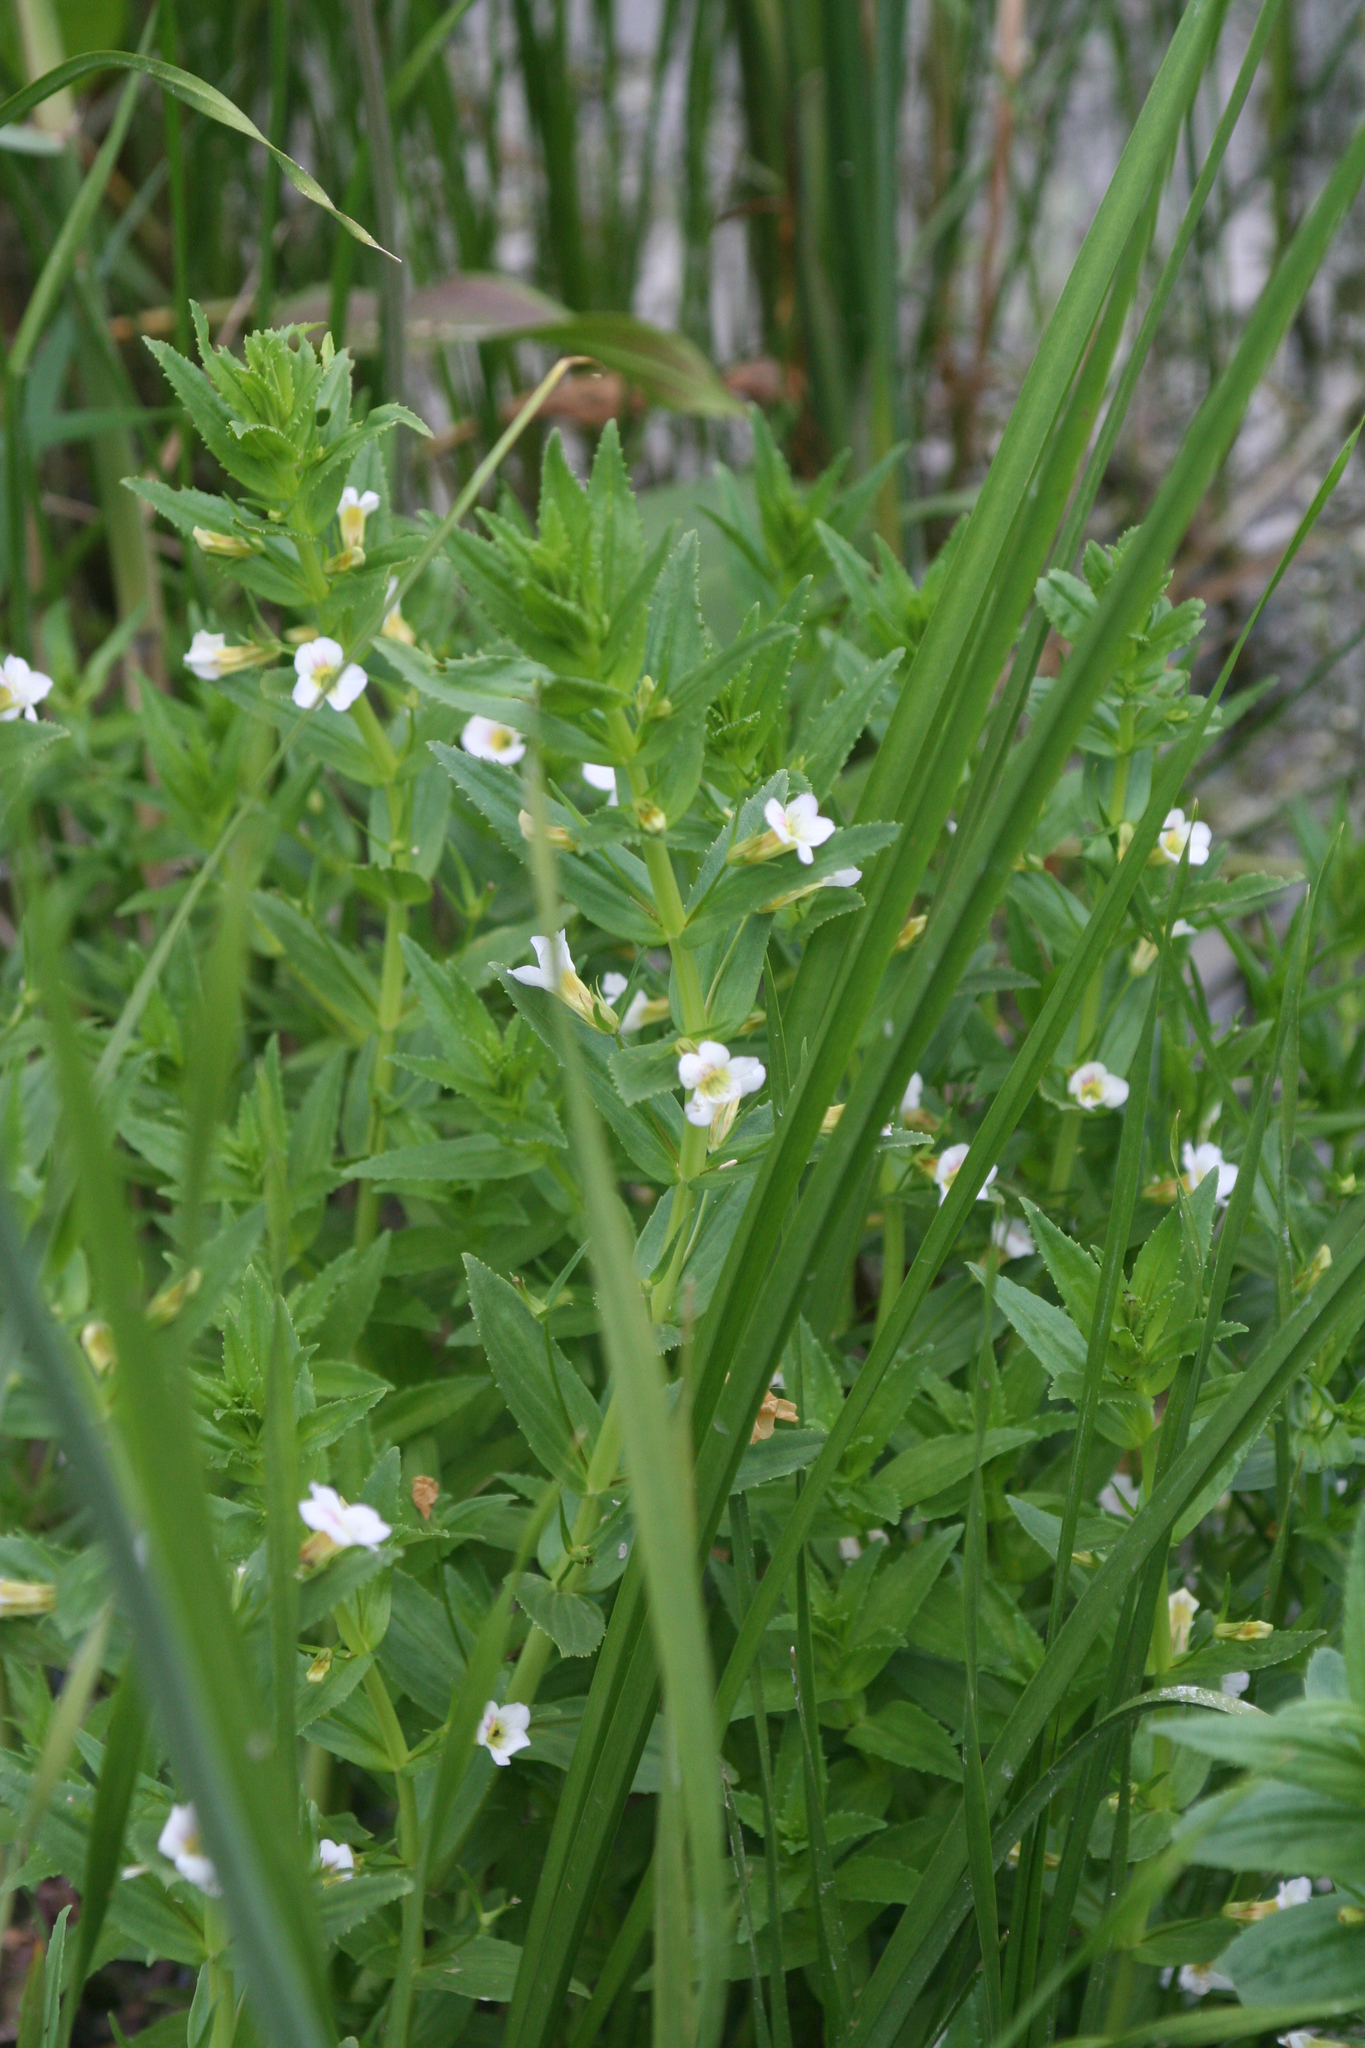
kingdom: Plantae
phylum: Tracheophyta
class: Magnoliopsida
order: Lamiales
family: Plantaginaceae
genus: Gratiola
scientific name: Gratiola officinalis
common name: Gratiola
